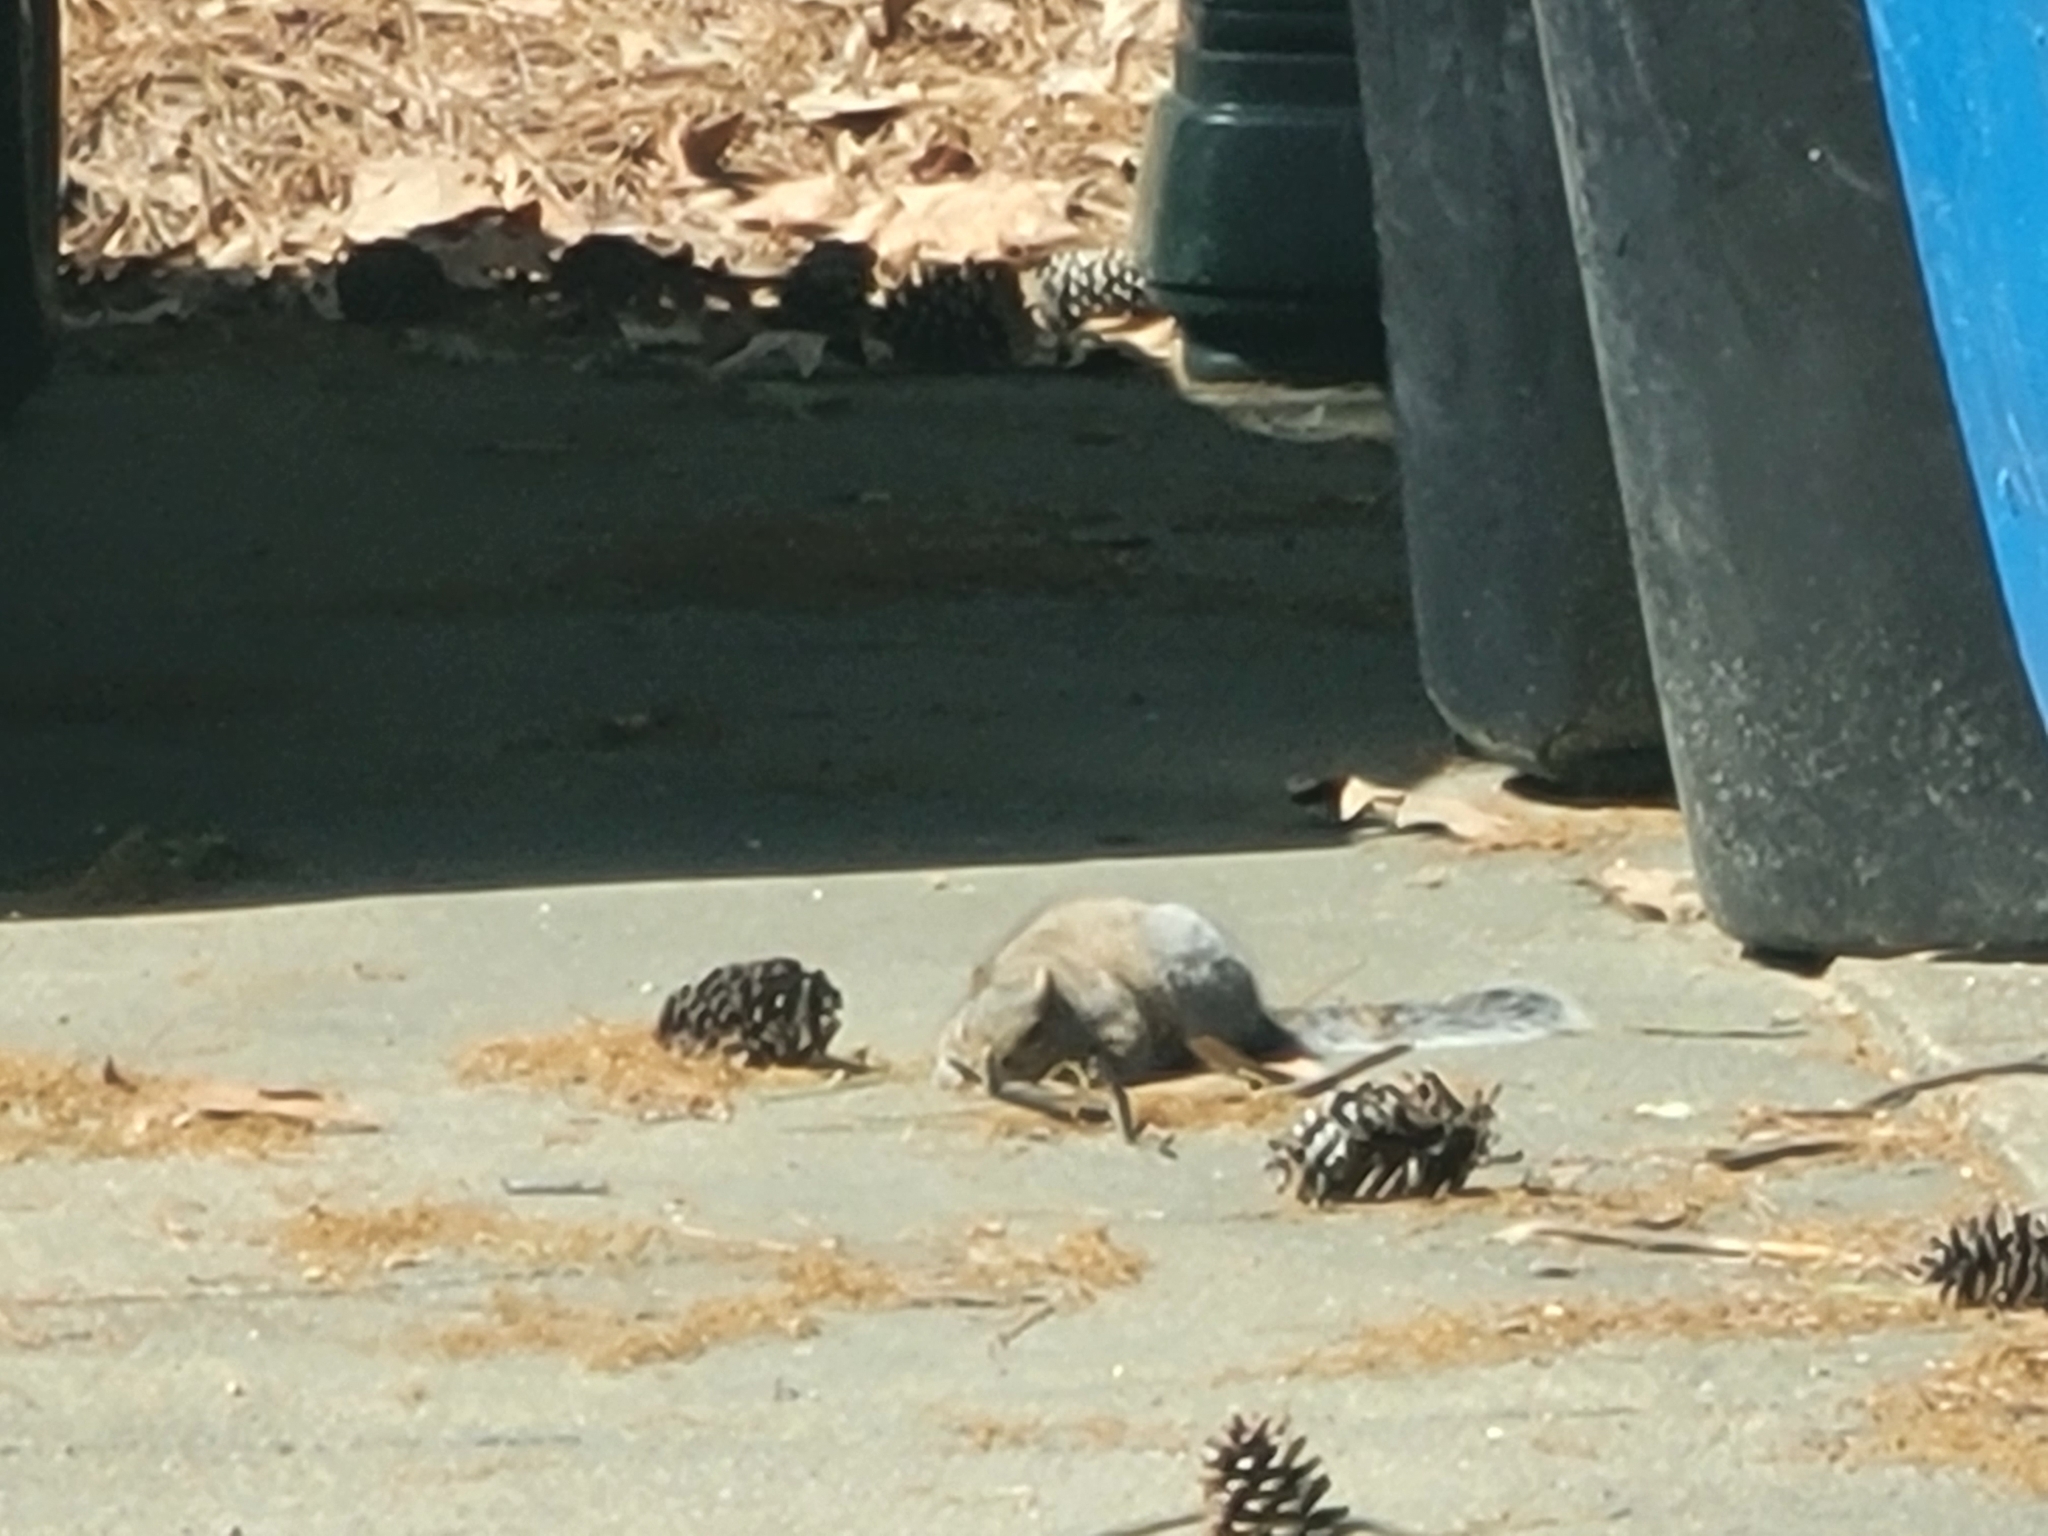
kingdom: Animalia
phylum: Chordata
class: Mammalia
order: Rodentia
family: Sciuridae
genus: Sciurus
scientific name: Sciurus carolinensis
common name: Eastern gray squirrel
